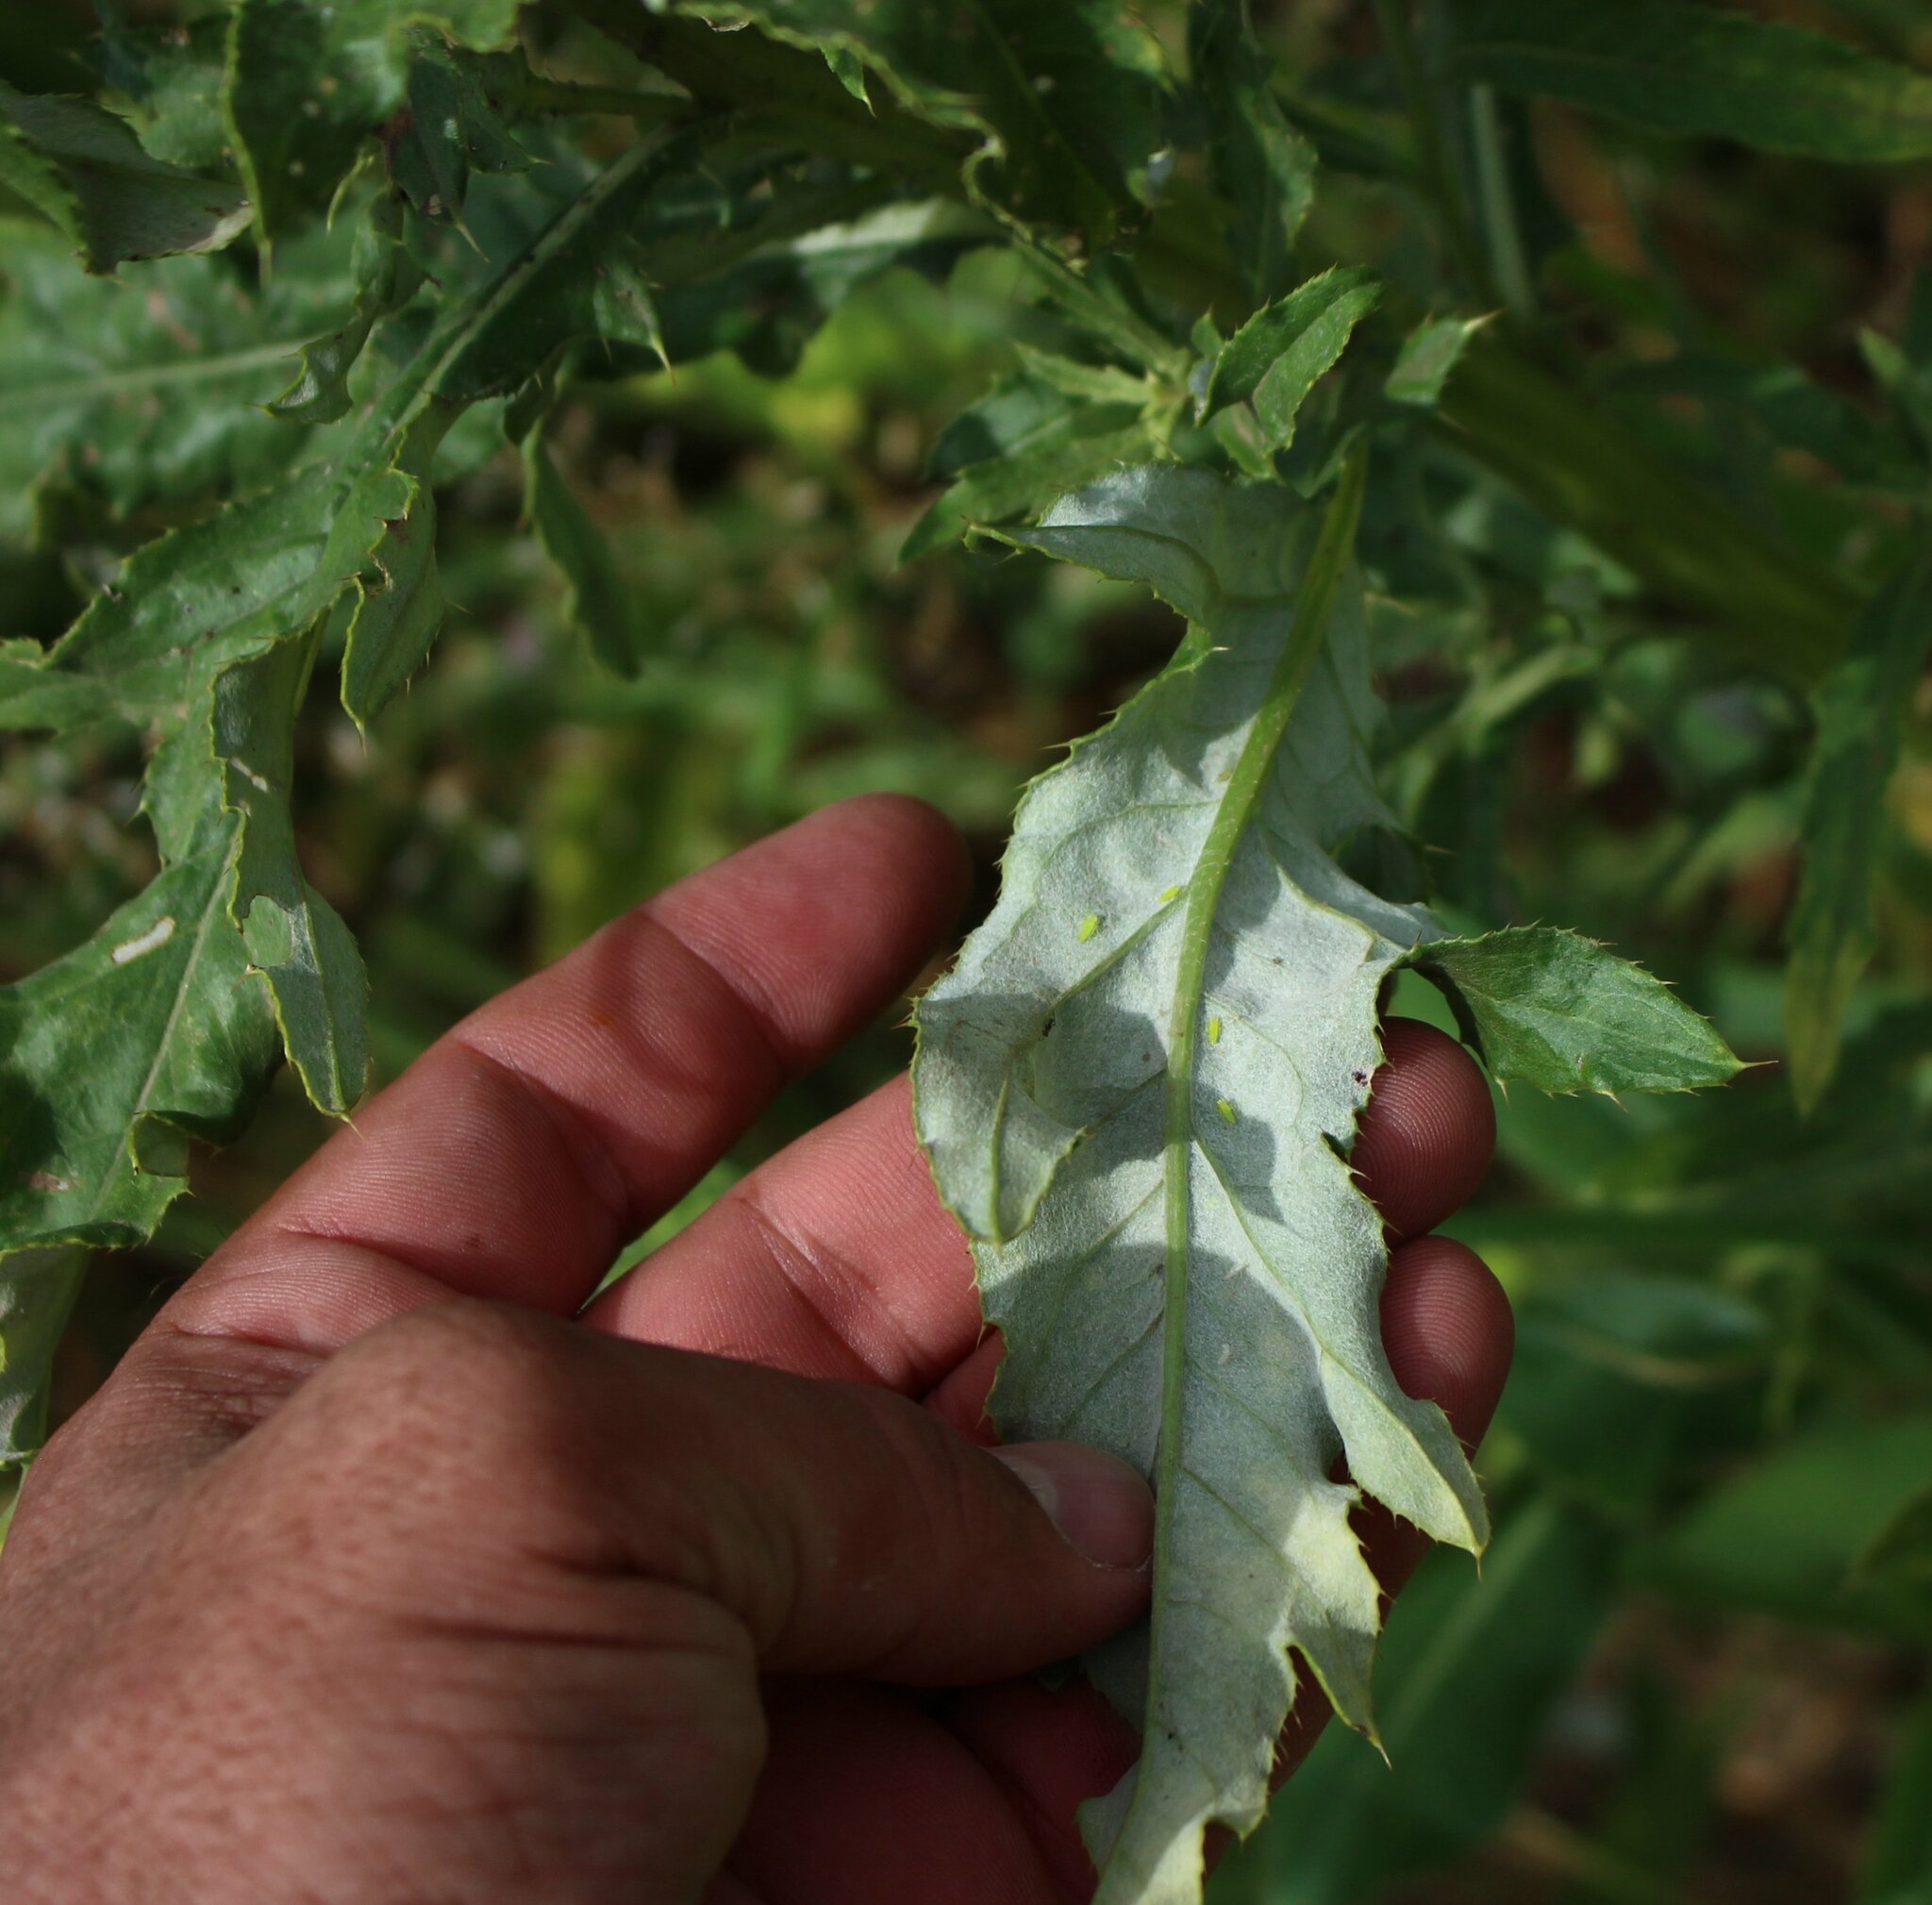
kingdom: Plantae
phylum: Tracheophyta
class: Magnoliopsida
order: Asterales
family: Asteraceae
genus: Cirsium
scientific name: Cirsium arvense
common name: Creeping thistle
